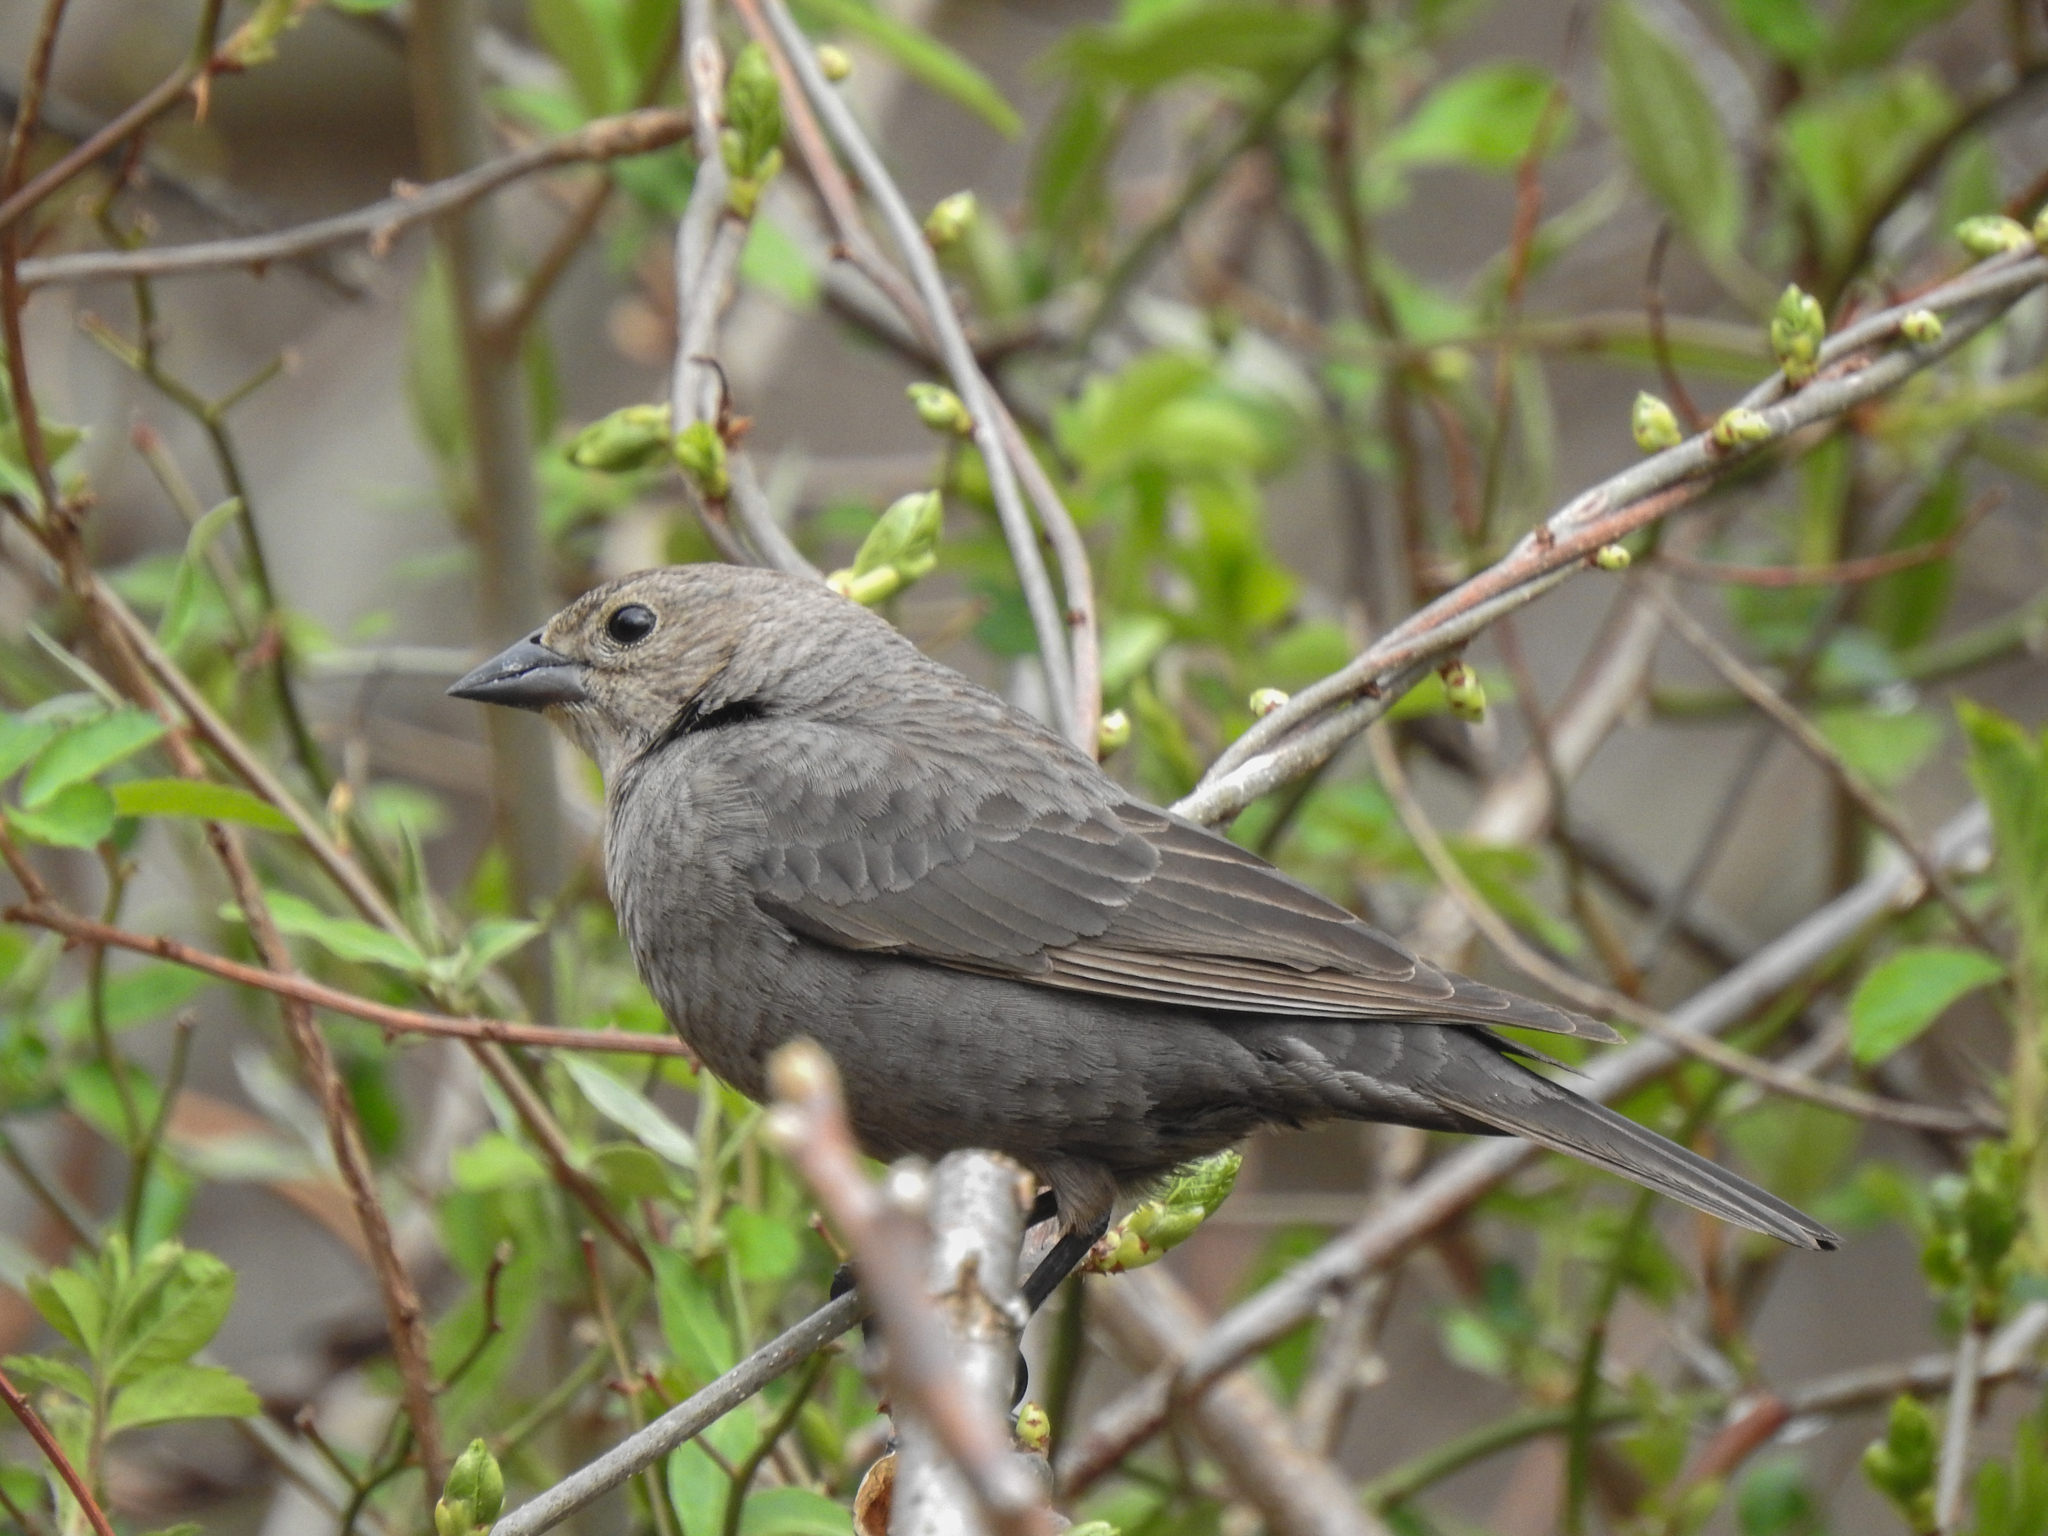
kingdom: Animalia
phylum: Chordata
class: Aves
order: Passeriformes
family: Icteridae
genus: Molothrus
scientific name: Molothrus ater
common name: Brown-headed cowbird
